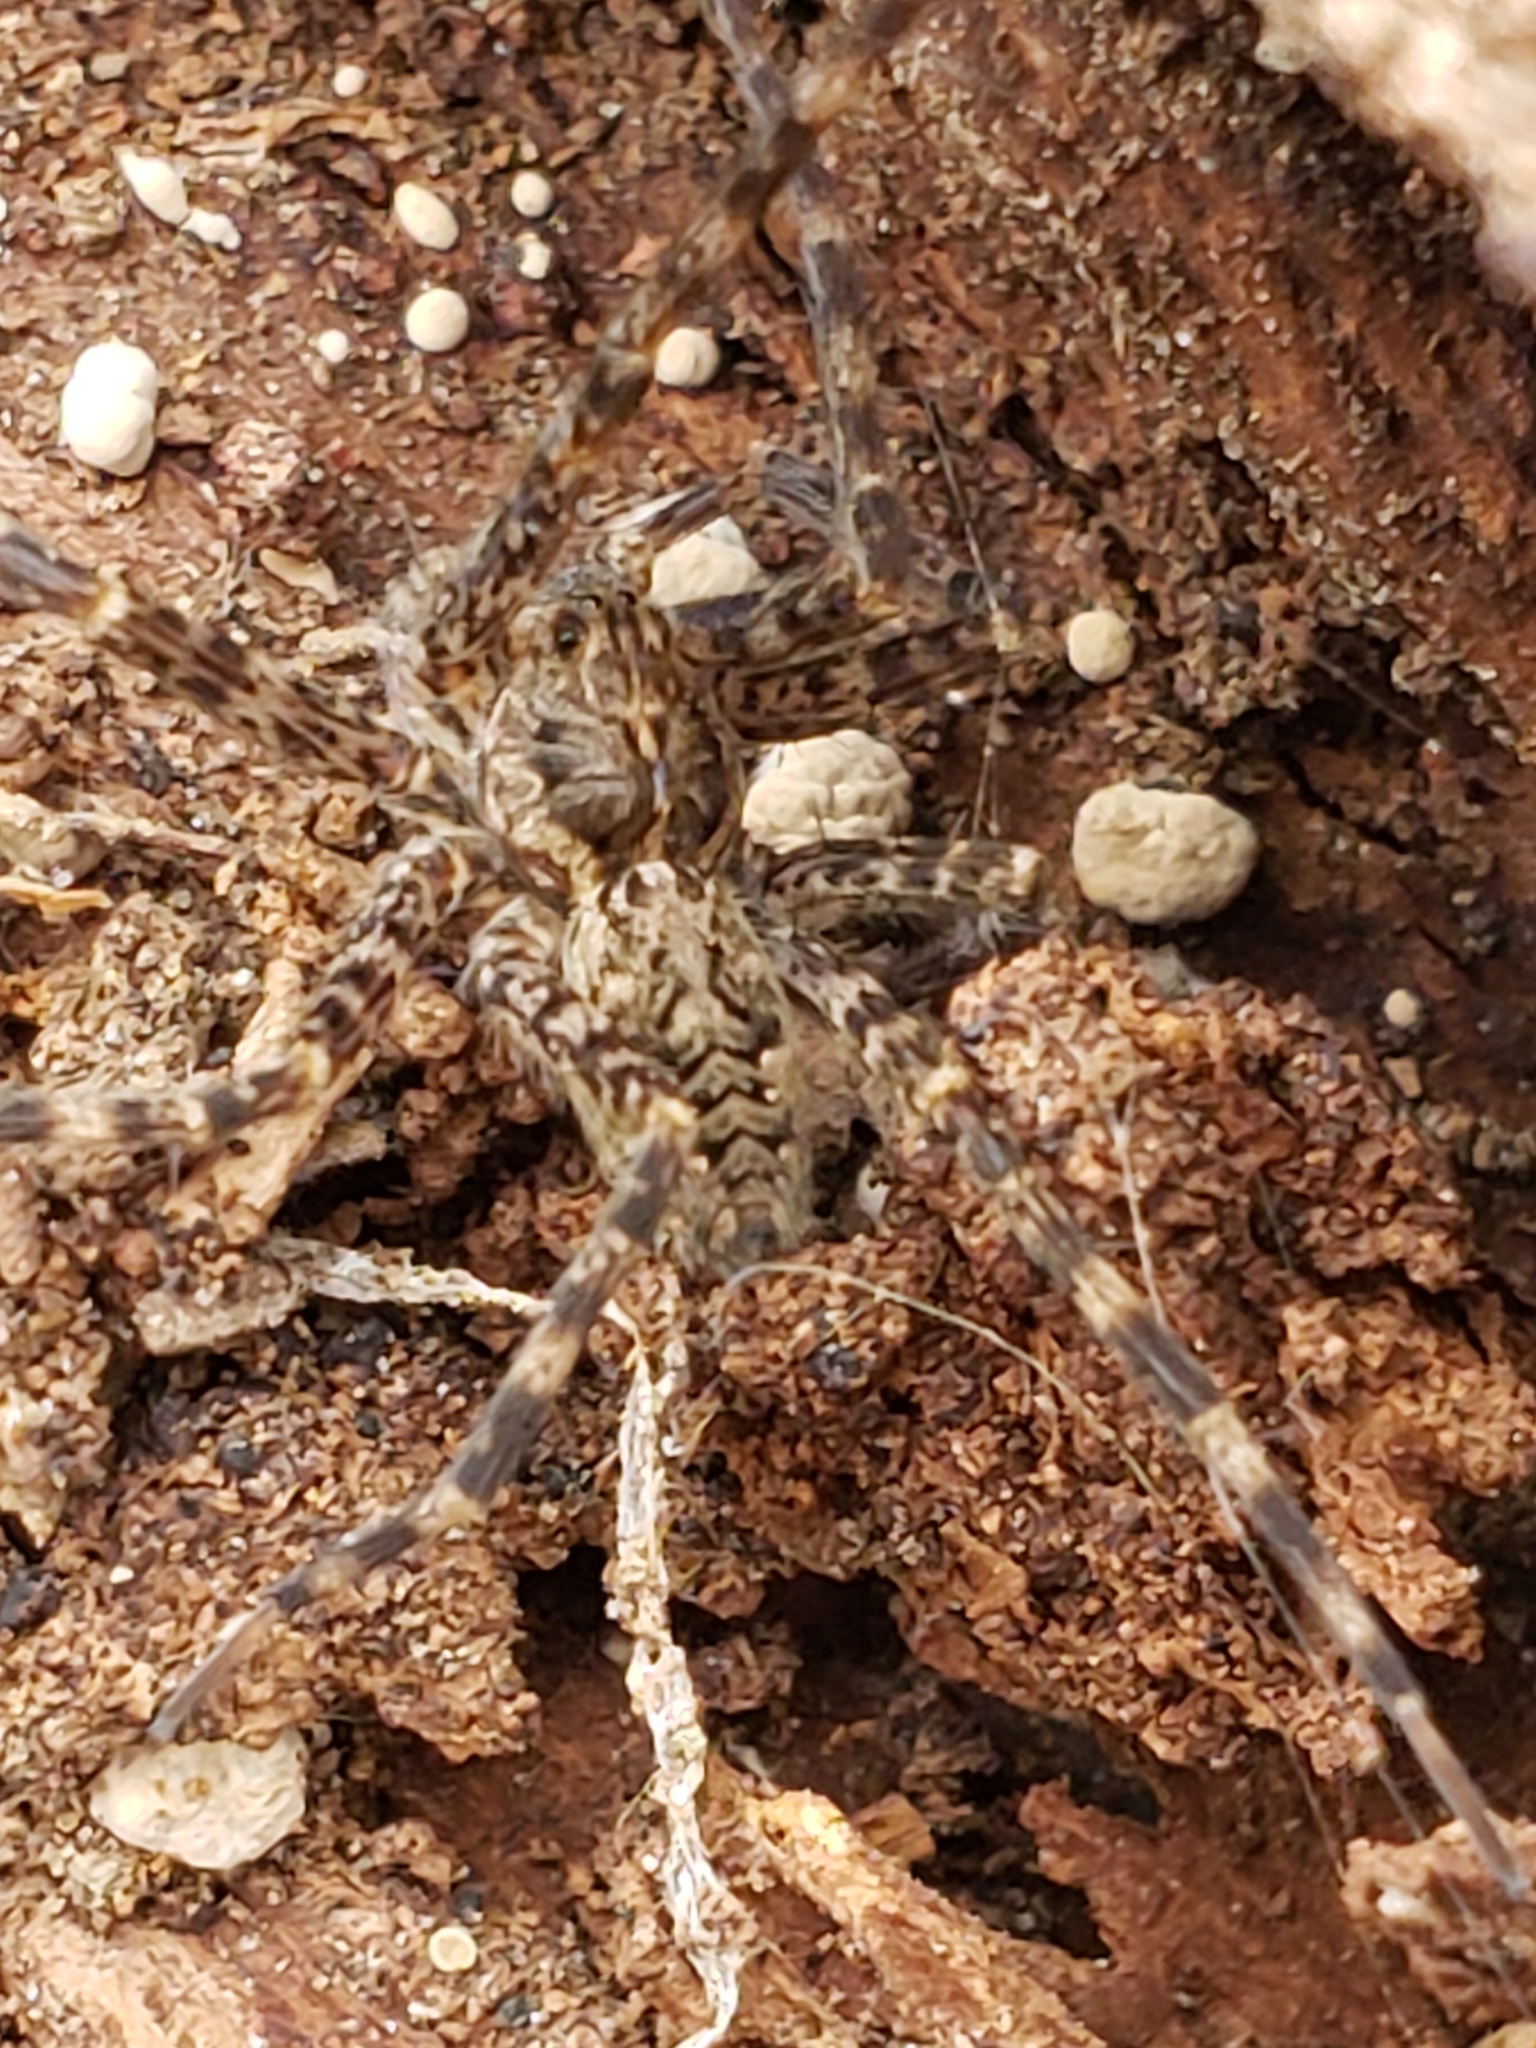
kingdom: Animalia
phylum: Arthropoda
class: Arachnida
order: Araneae
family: Pisauridae
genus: Dolomedes
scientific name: Dolomedes tenebrosus
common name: Dark fishing spider
